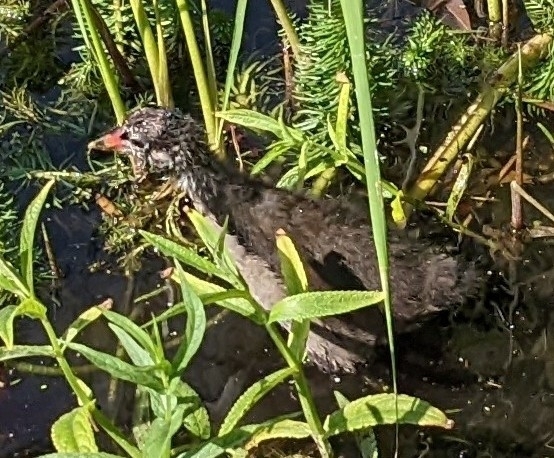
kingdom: Animalia
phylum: Chordata
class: Aves
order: Gruiformes
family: Rallidae
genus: Gallinula
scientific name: Gallinula chloropus
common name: Common moorhen
